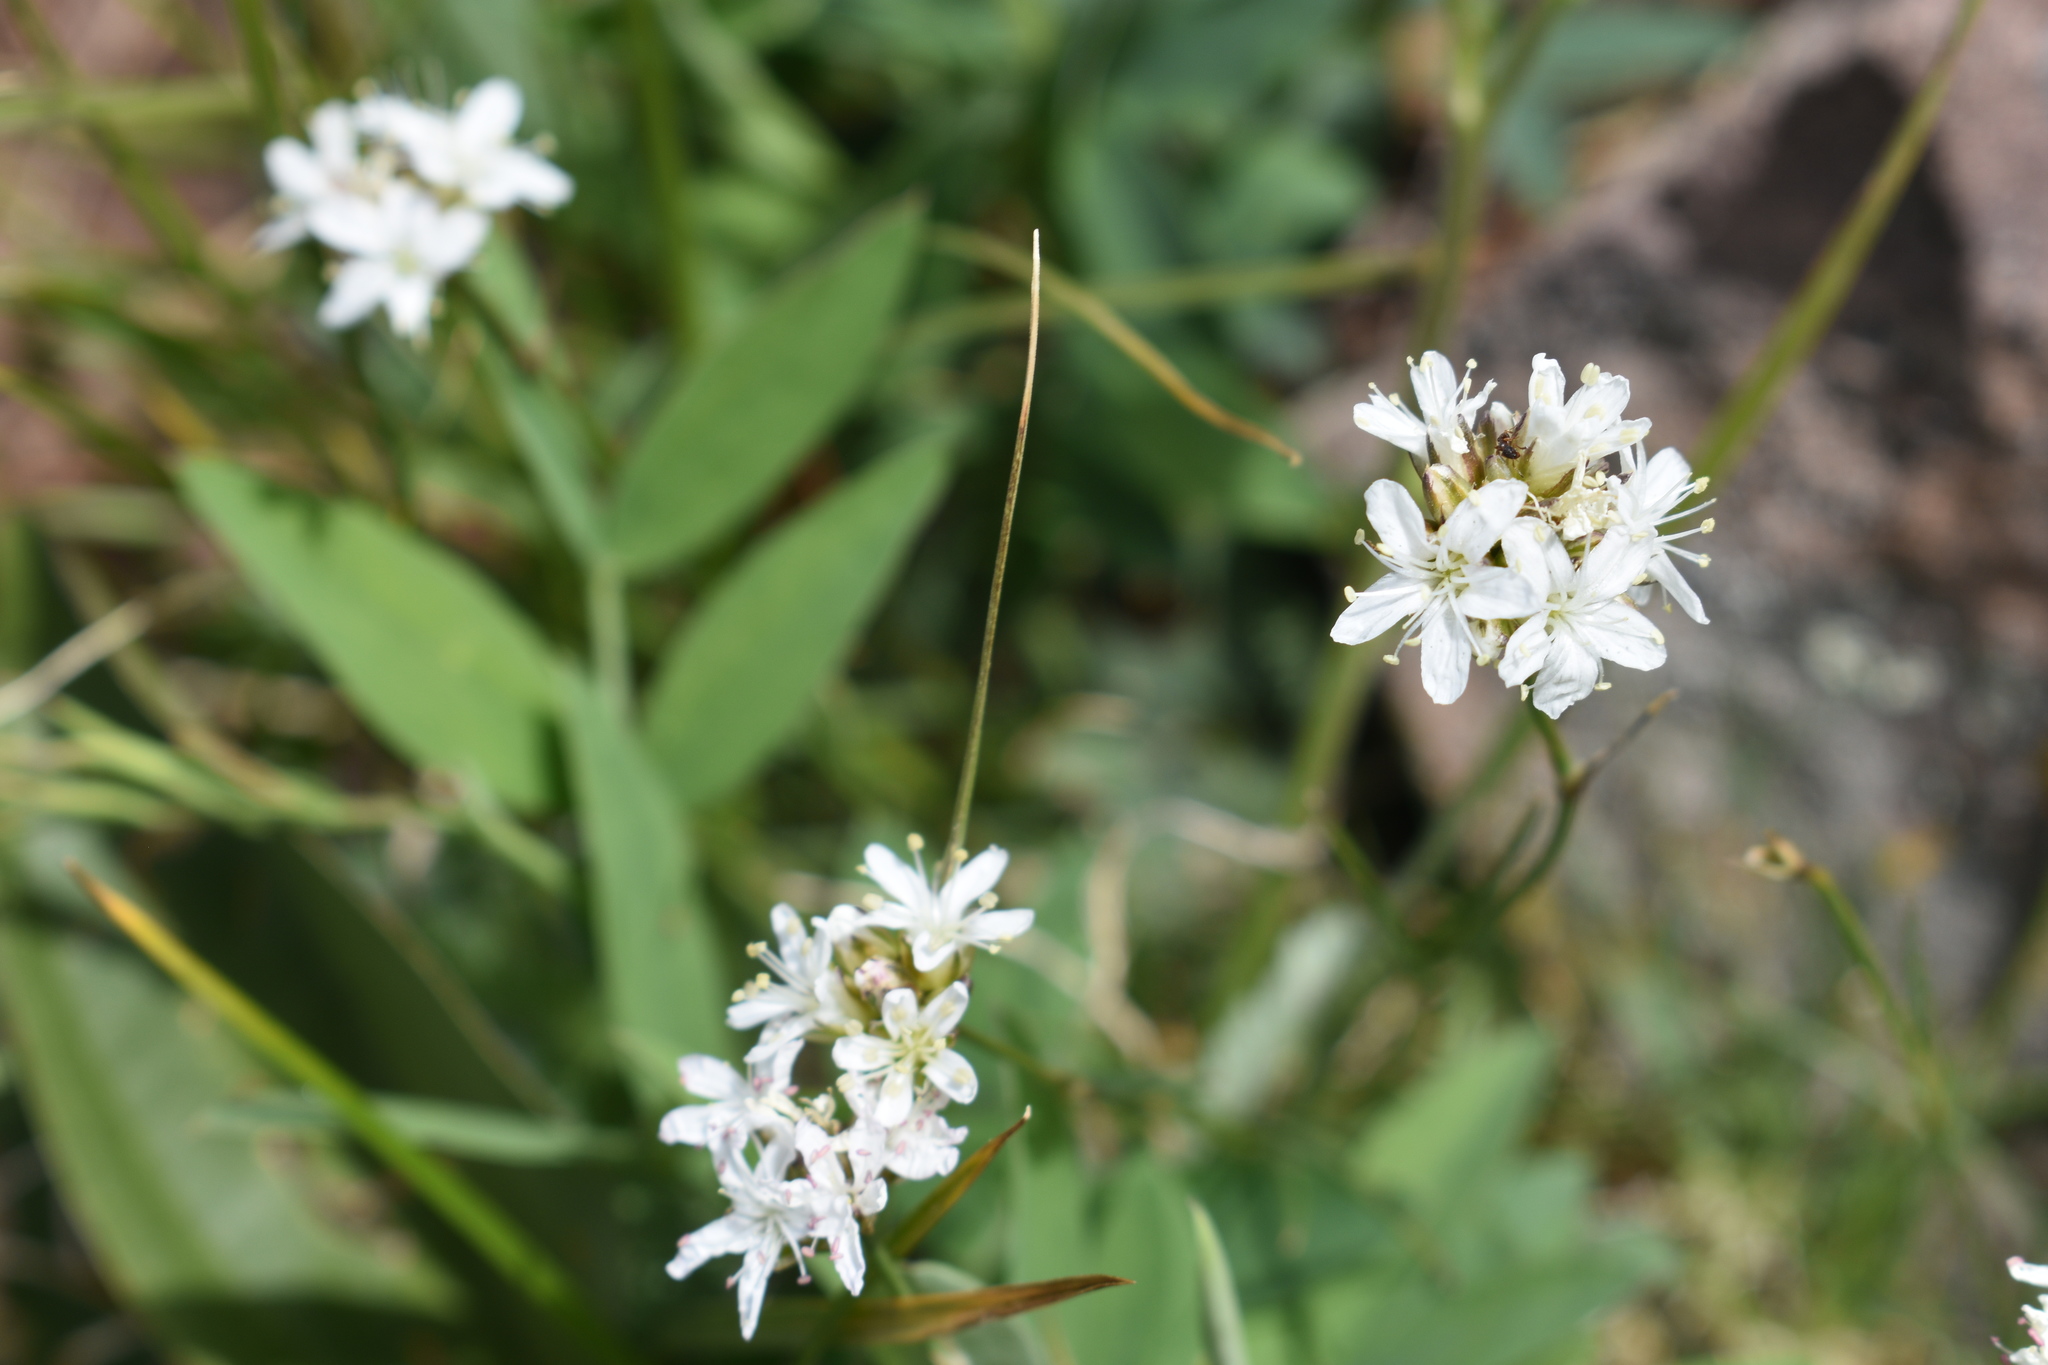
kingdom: Plantae
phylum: Tracheophyta
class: Magnoliopsida
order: Caryophyllales
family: Caryophyllaceae
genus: Eremogone
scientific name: Eremogone congesta
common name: Ballhead sandwort
